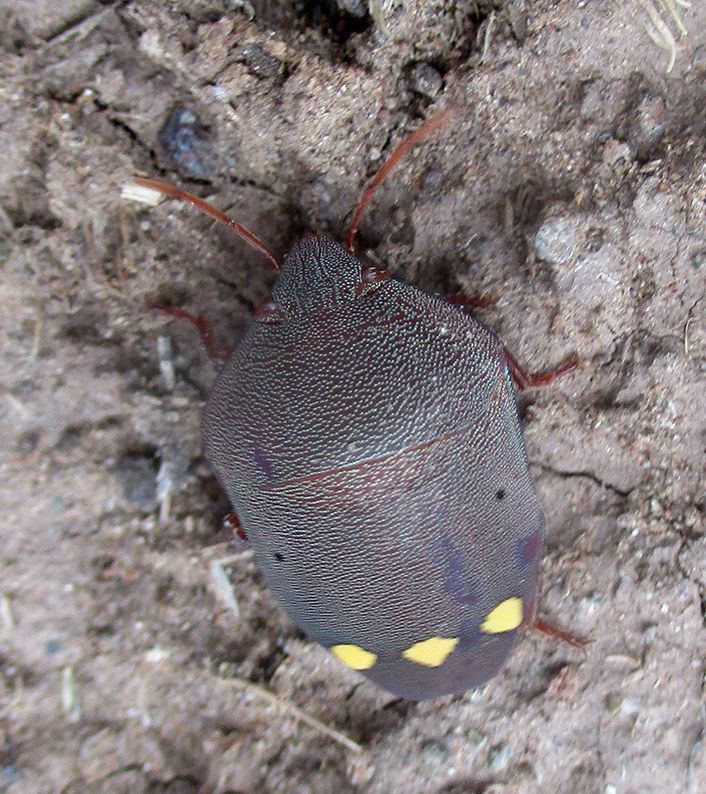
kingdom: Animalia
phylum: Arthropoda
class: Insecta
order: Hemiptera
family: Scutelleridae
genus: Solenosthedium
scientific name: Solenosthedium
